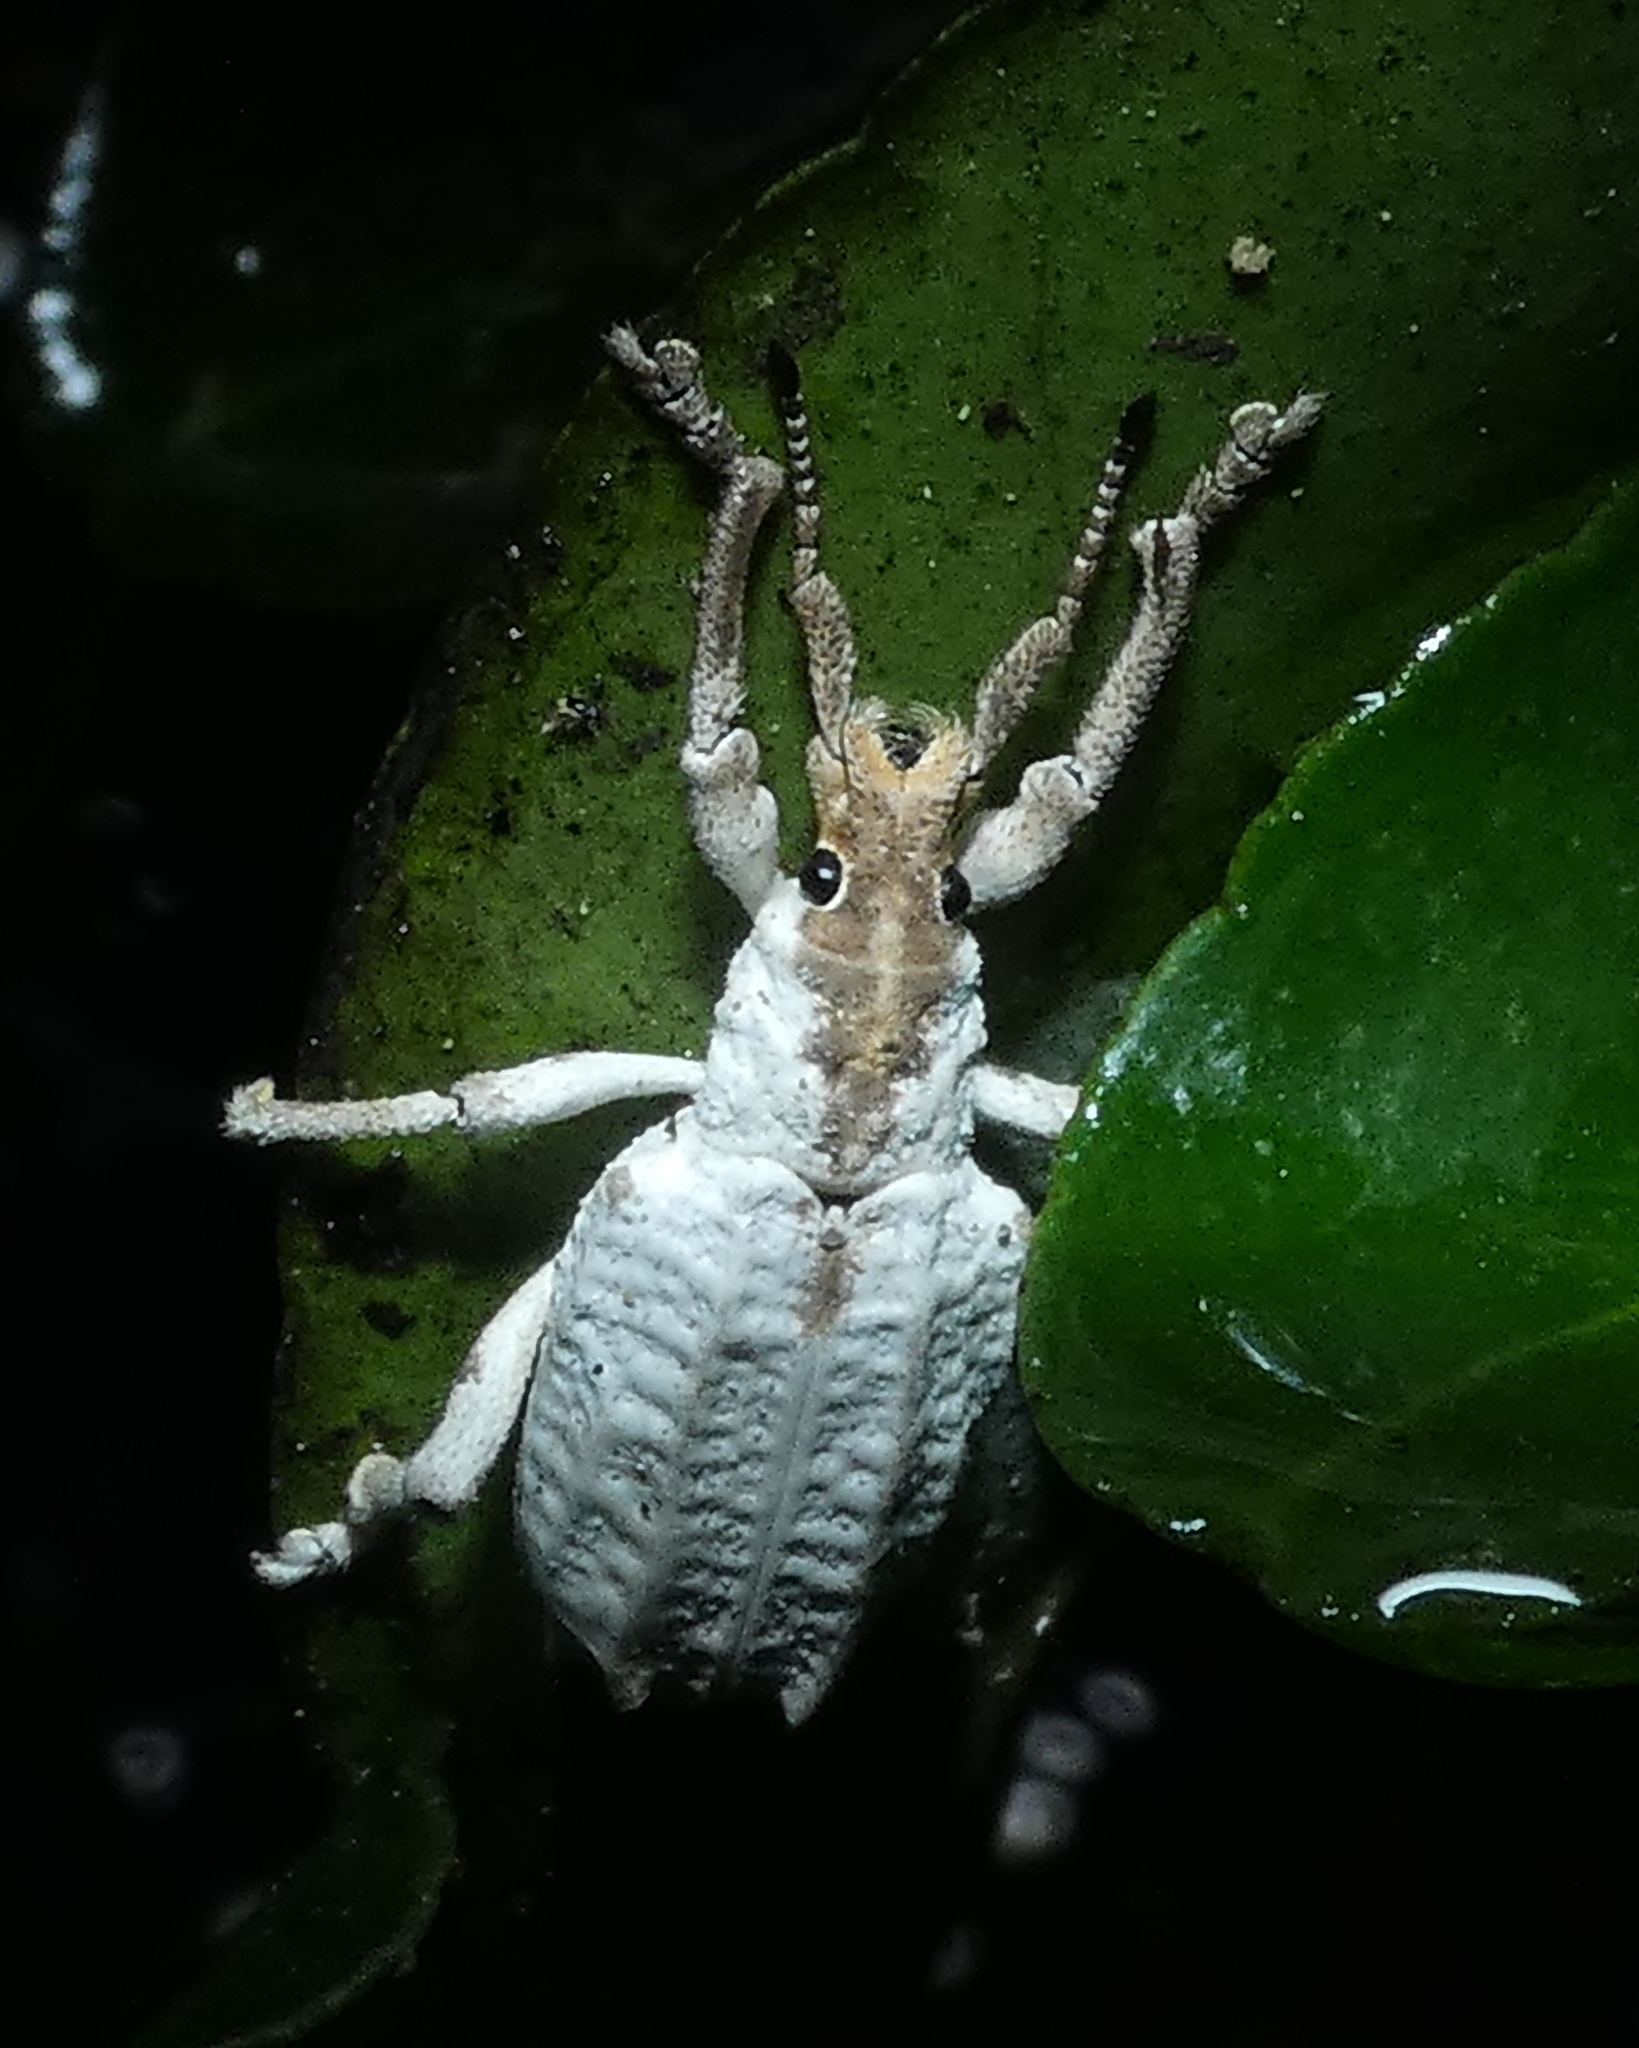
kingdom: Animalia
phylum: Arthropoda
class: Insecta
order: Coleoptera
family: Curculionidae
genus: Compsus
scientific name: Compsus niveus
